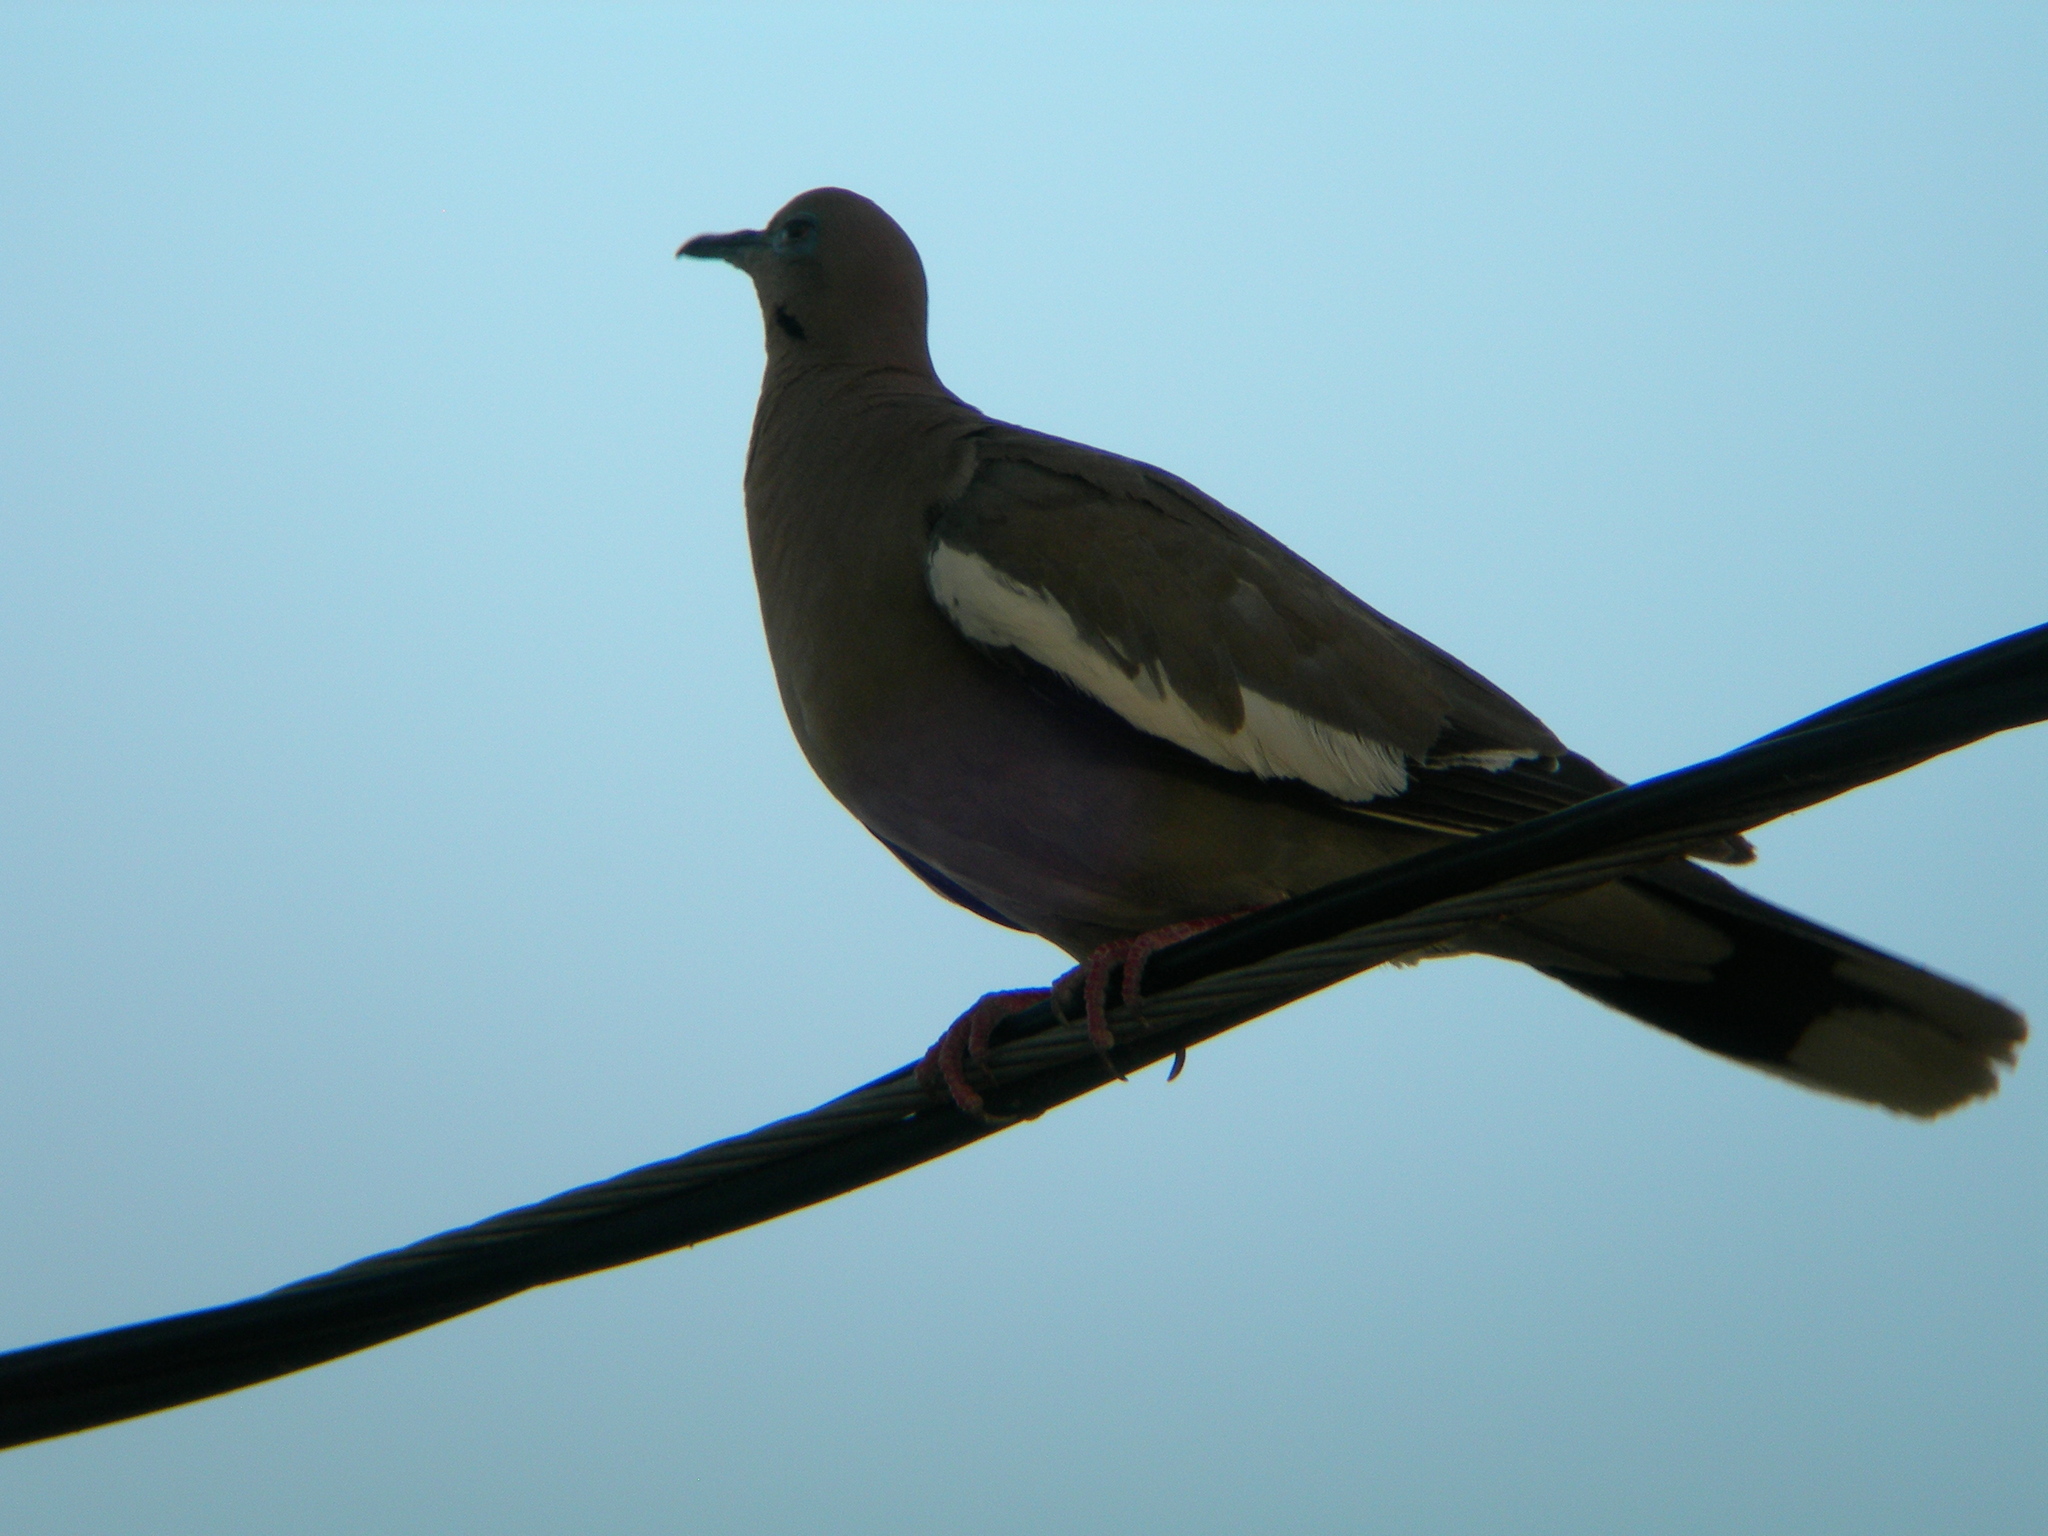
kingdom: Animalia
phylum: Chordata
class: Aves
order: Columbiformes
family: Columbidae
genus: Zenaida
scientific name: Zenaida asiatica
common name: White-winged dove
